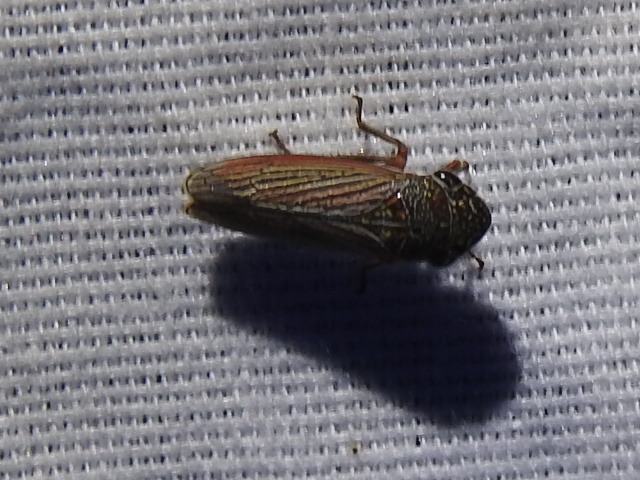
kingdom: Animalia
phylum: Arthropoda
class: Insecta
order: Hemiptera
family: Cicadellidae
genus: Cuerna
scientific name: Cuerna costalis
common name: Lateral-lined sharpshooter
